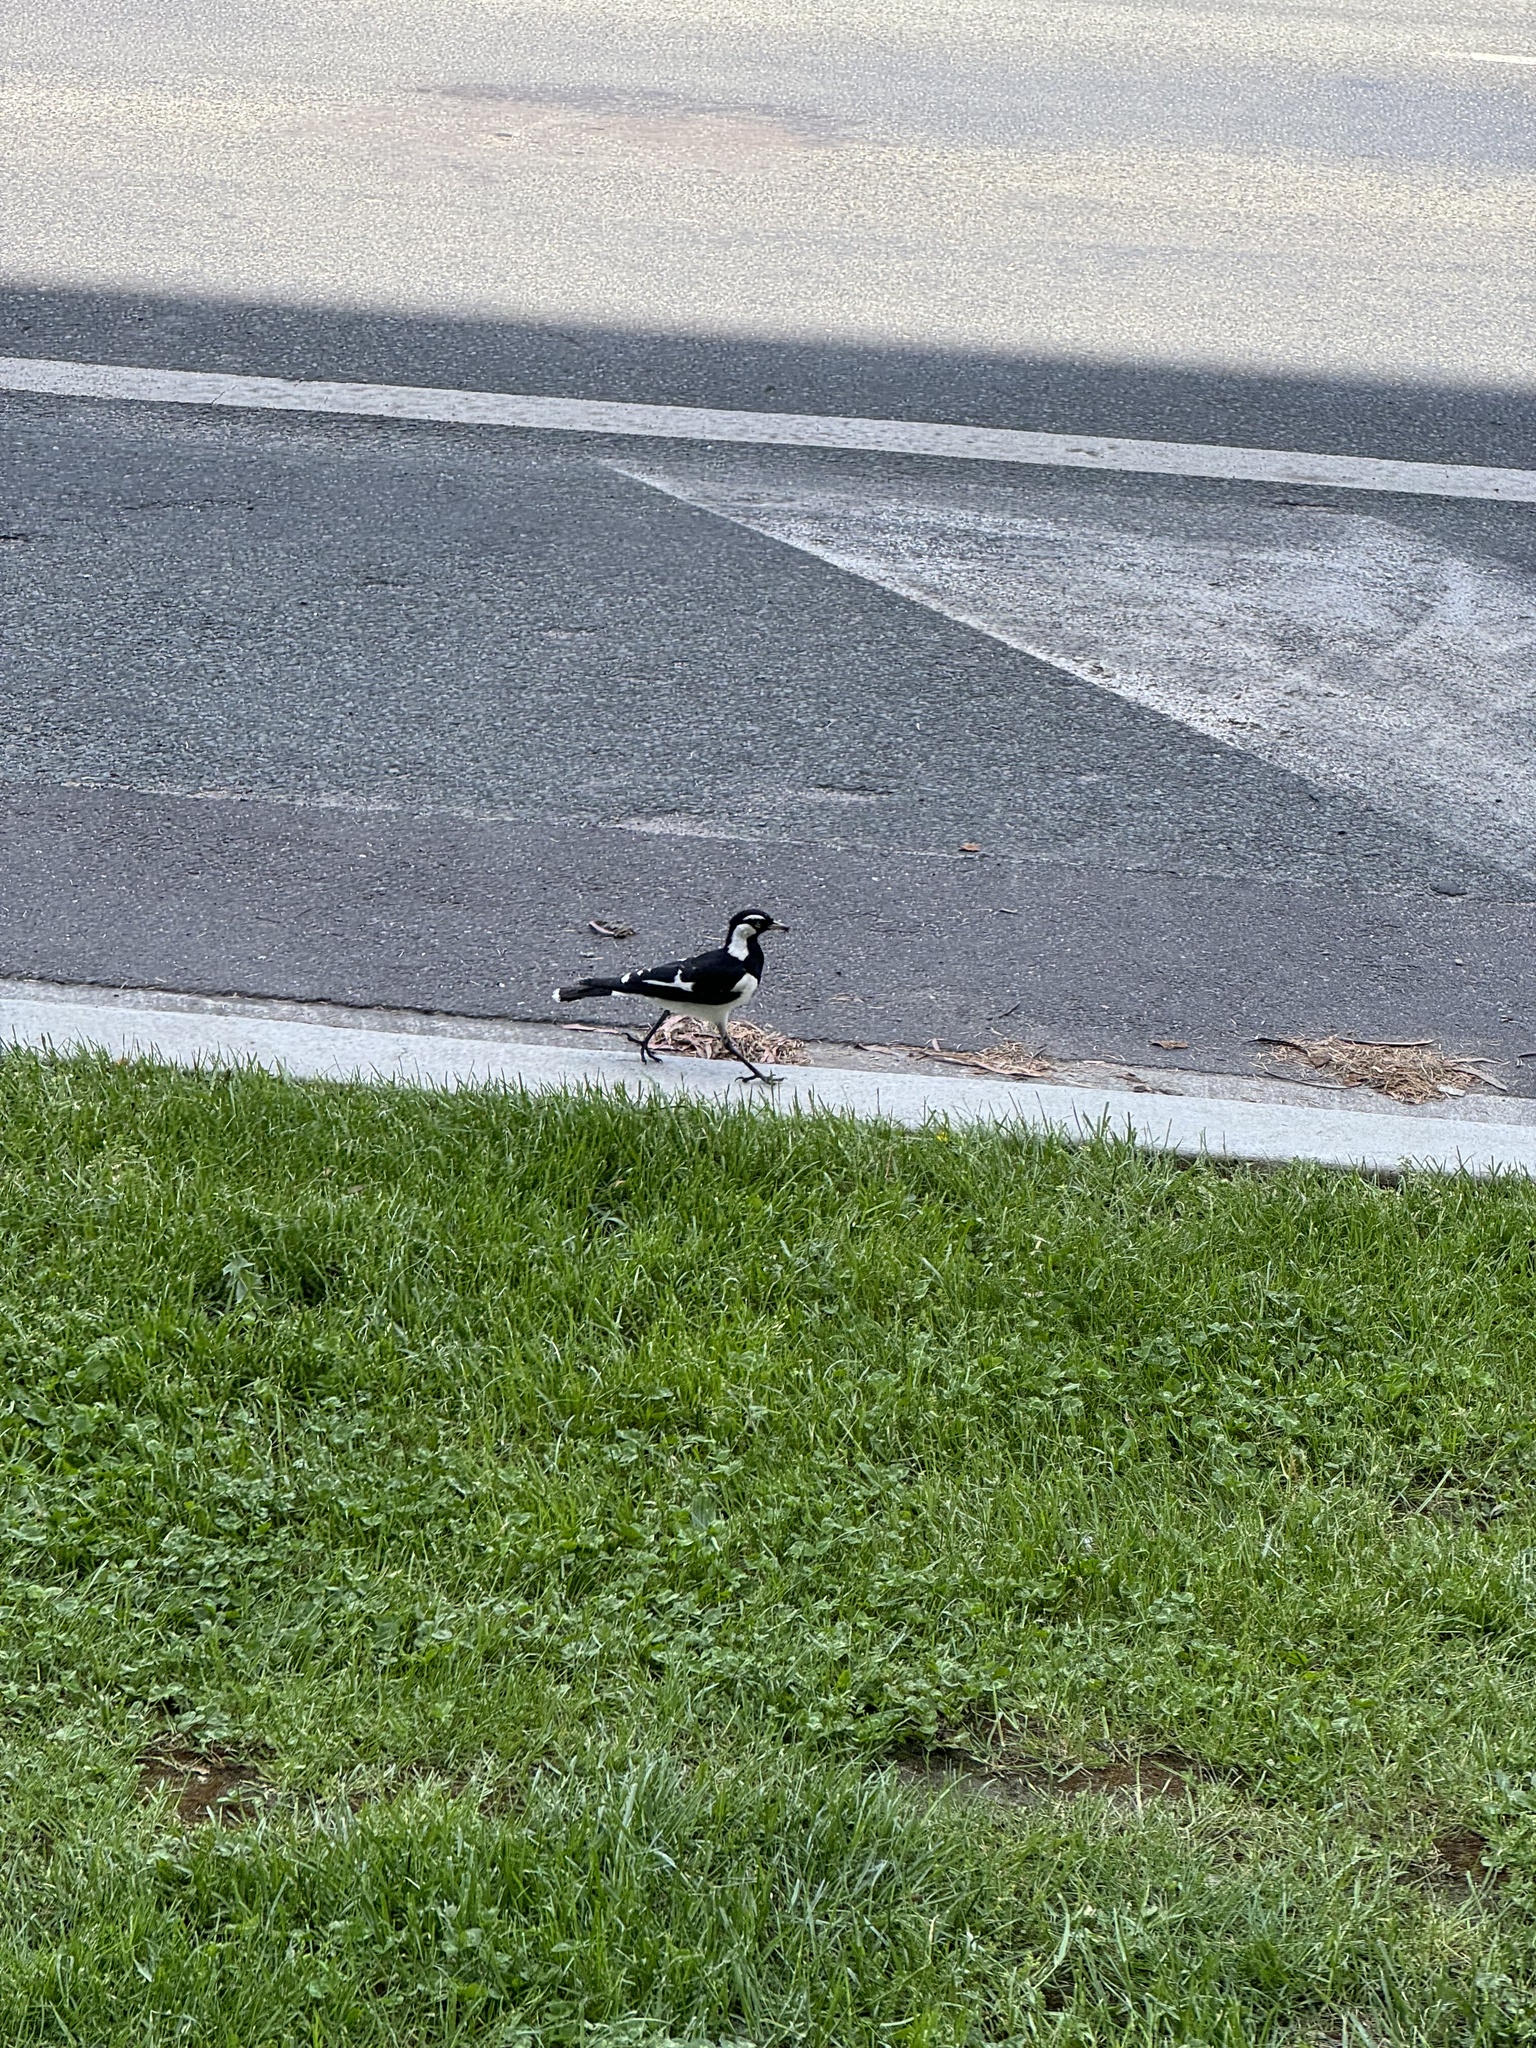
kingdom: Animalia
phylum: Chordata
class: Aves
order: Passeriformes
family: Monarchidae
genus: Grallina
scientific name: Grallina cyanoleuca
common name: Magpie-lark
